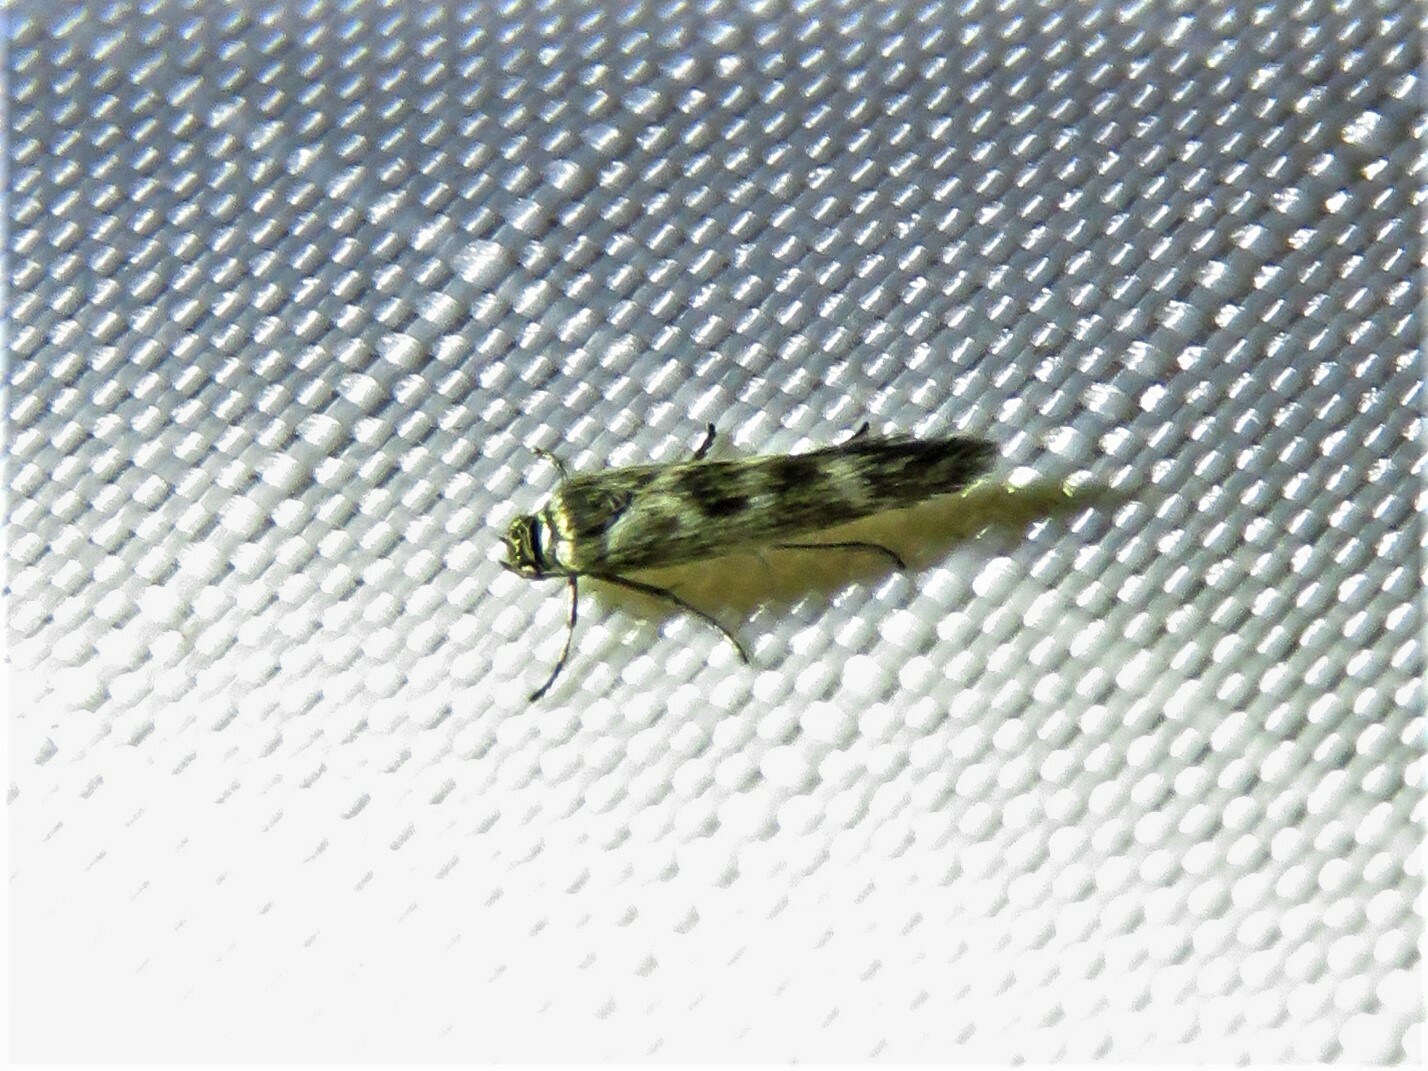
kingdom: Animalia
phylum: Arthropoda
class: Insecta
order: Lepidoptera
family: Scythrididae
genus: Scythris
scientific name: Scythris trivinctella
